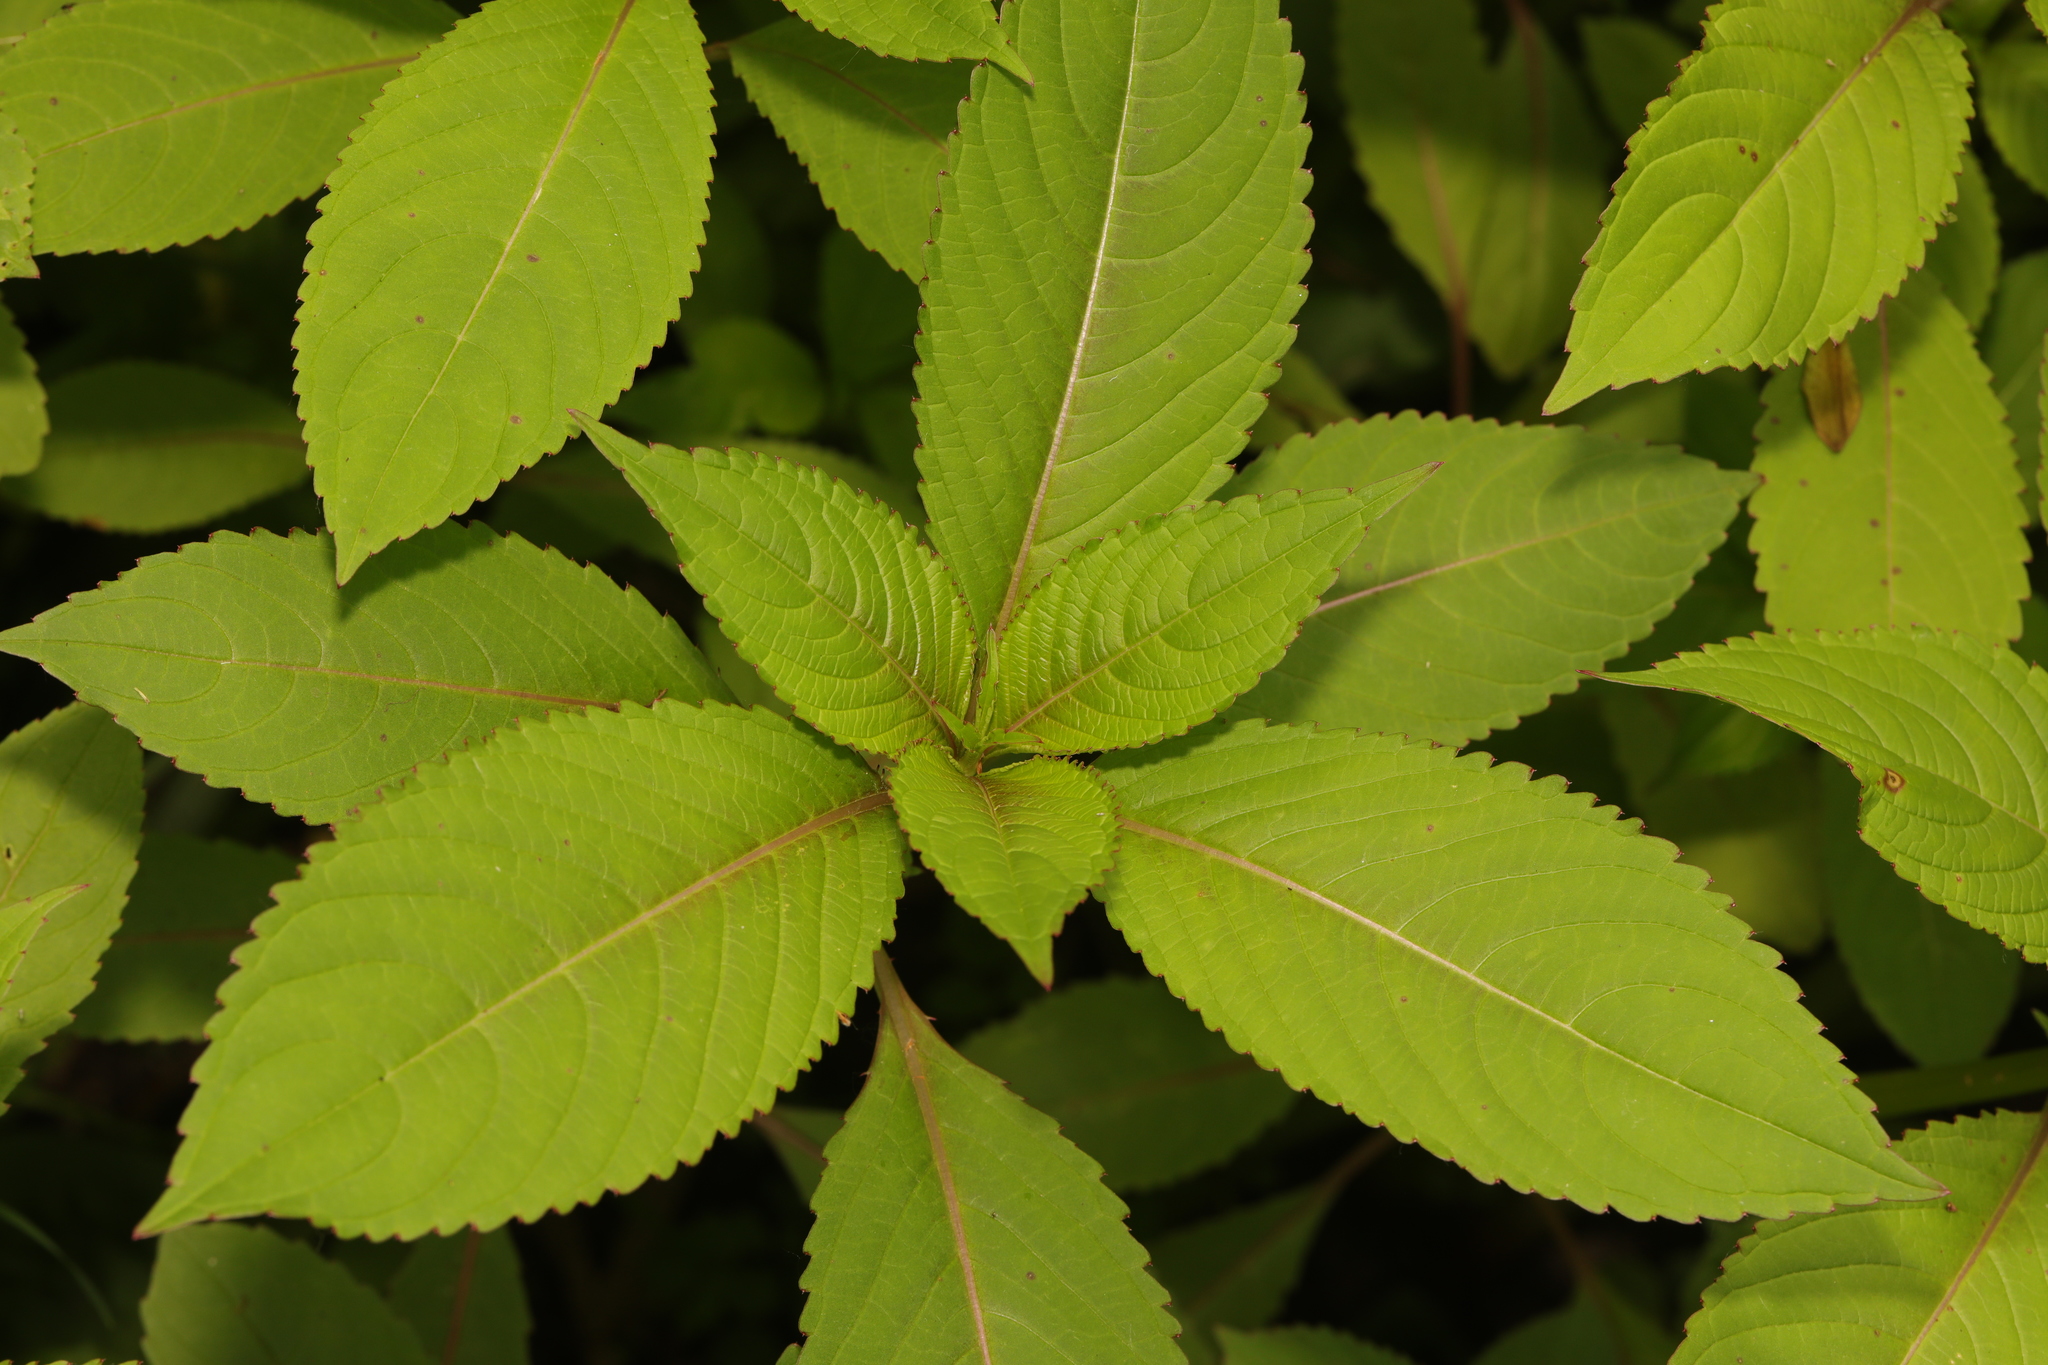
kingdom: Plantae
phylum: Tracheophyta
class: Magnoliopsida
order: Ericales
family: Balsaminaceae
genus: Impatiens
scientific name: Impatiens glandulifera
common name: Himalayan balsam
